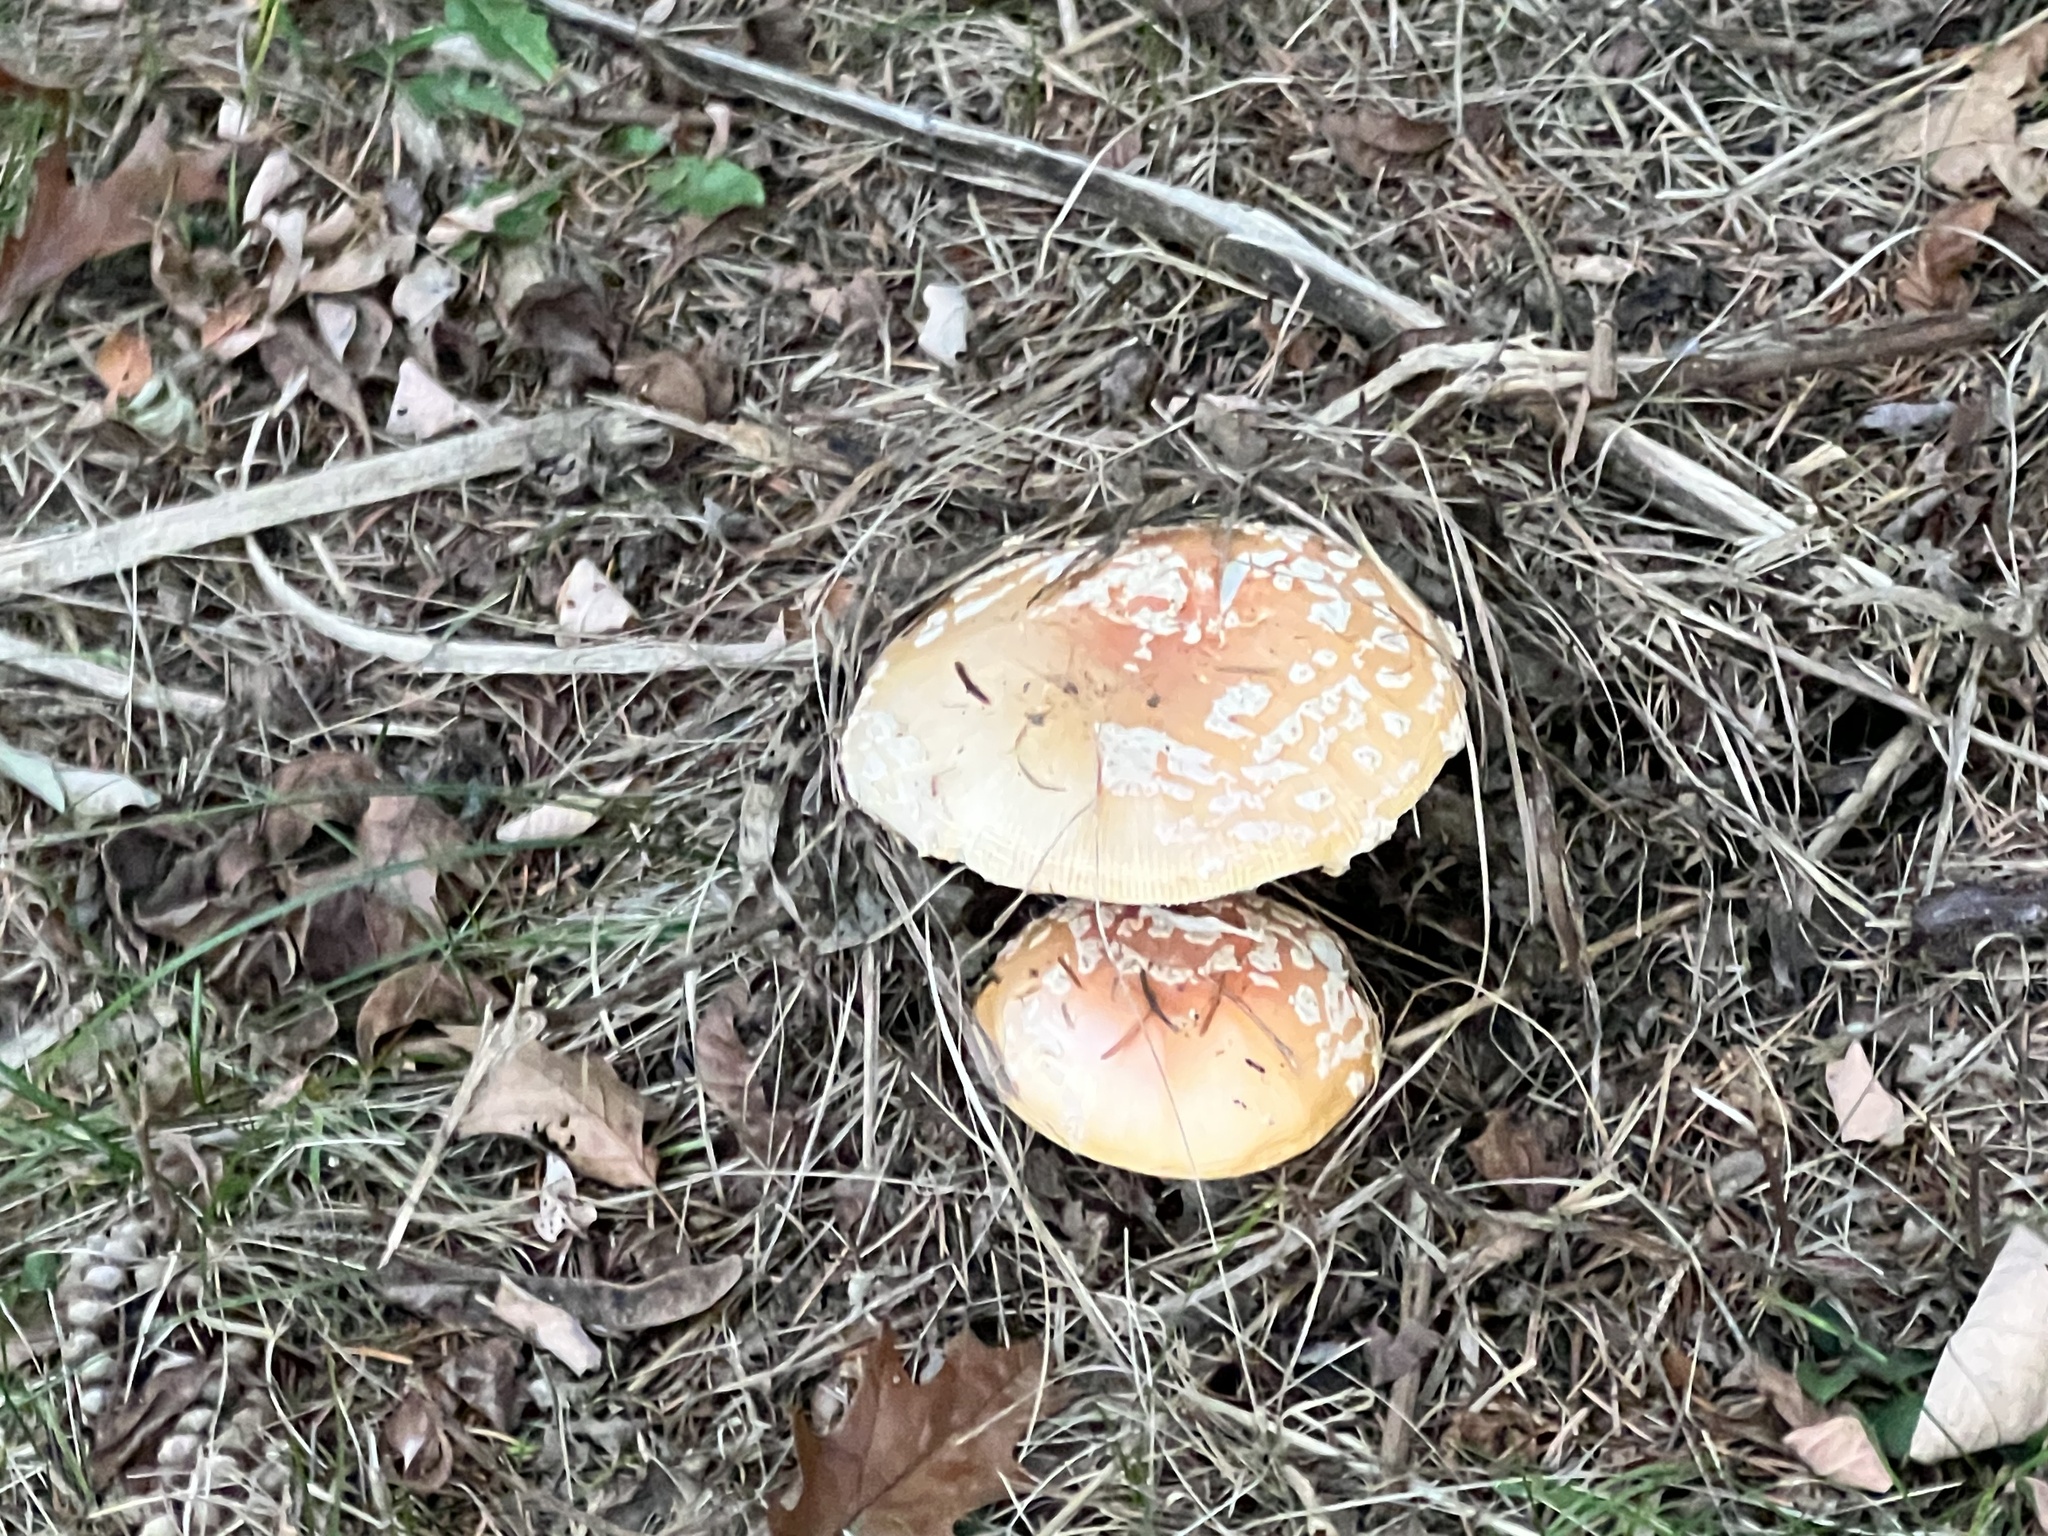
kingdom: Fungi
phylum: Basidiomycota
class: Agaricomycetes
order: Agaricales
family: Amanitaceae
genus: Amanita
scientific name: Amanita muscaria
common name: Fly agaric
